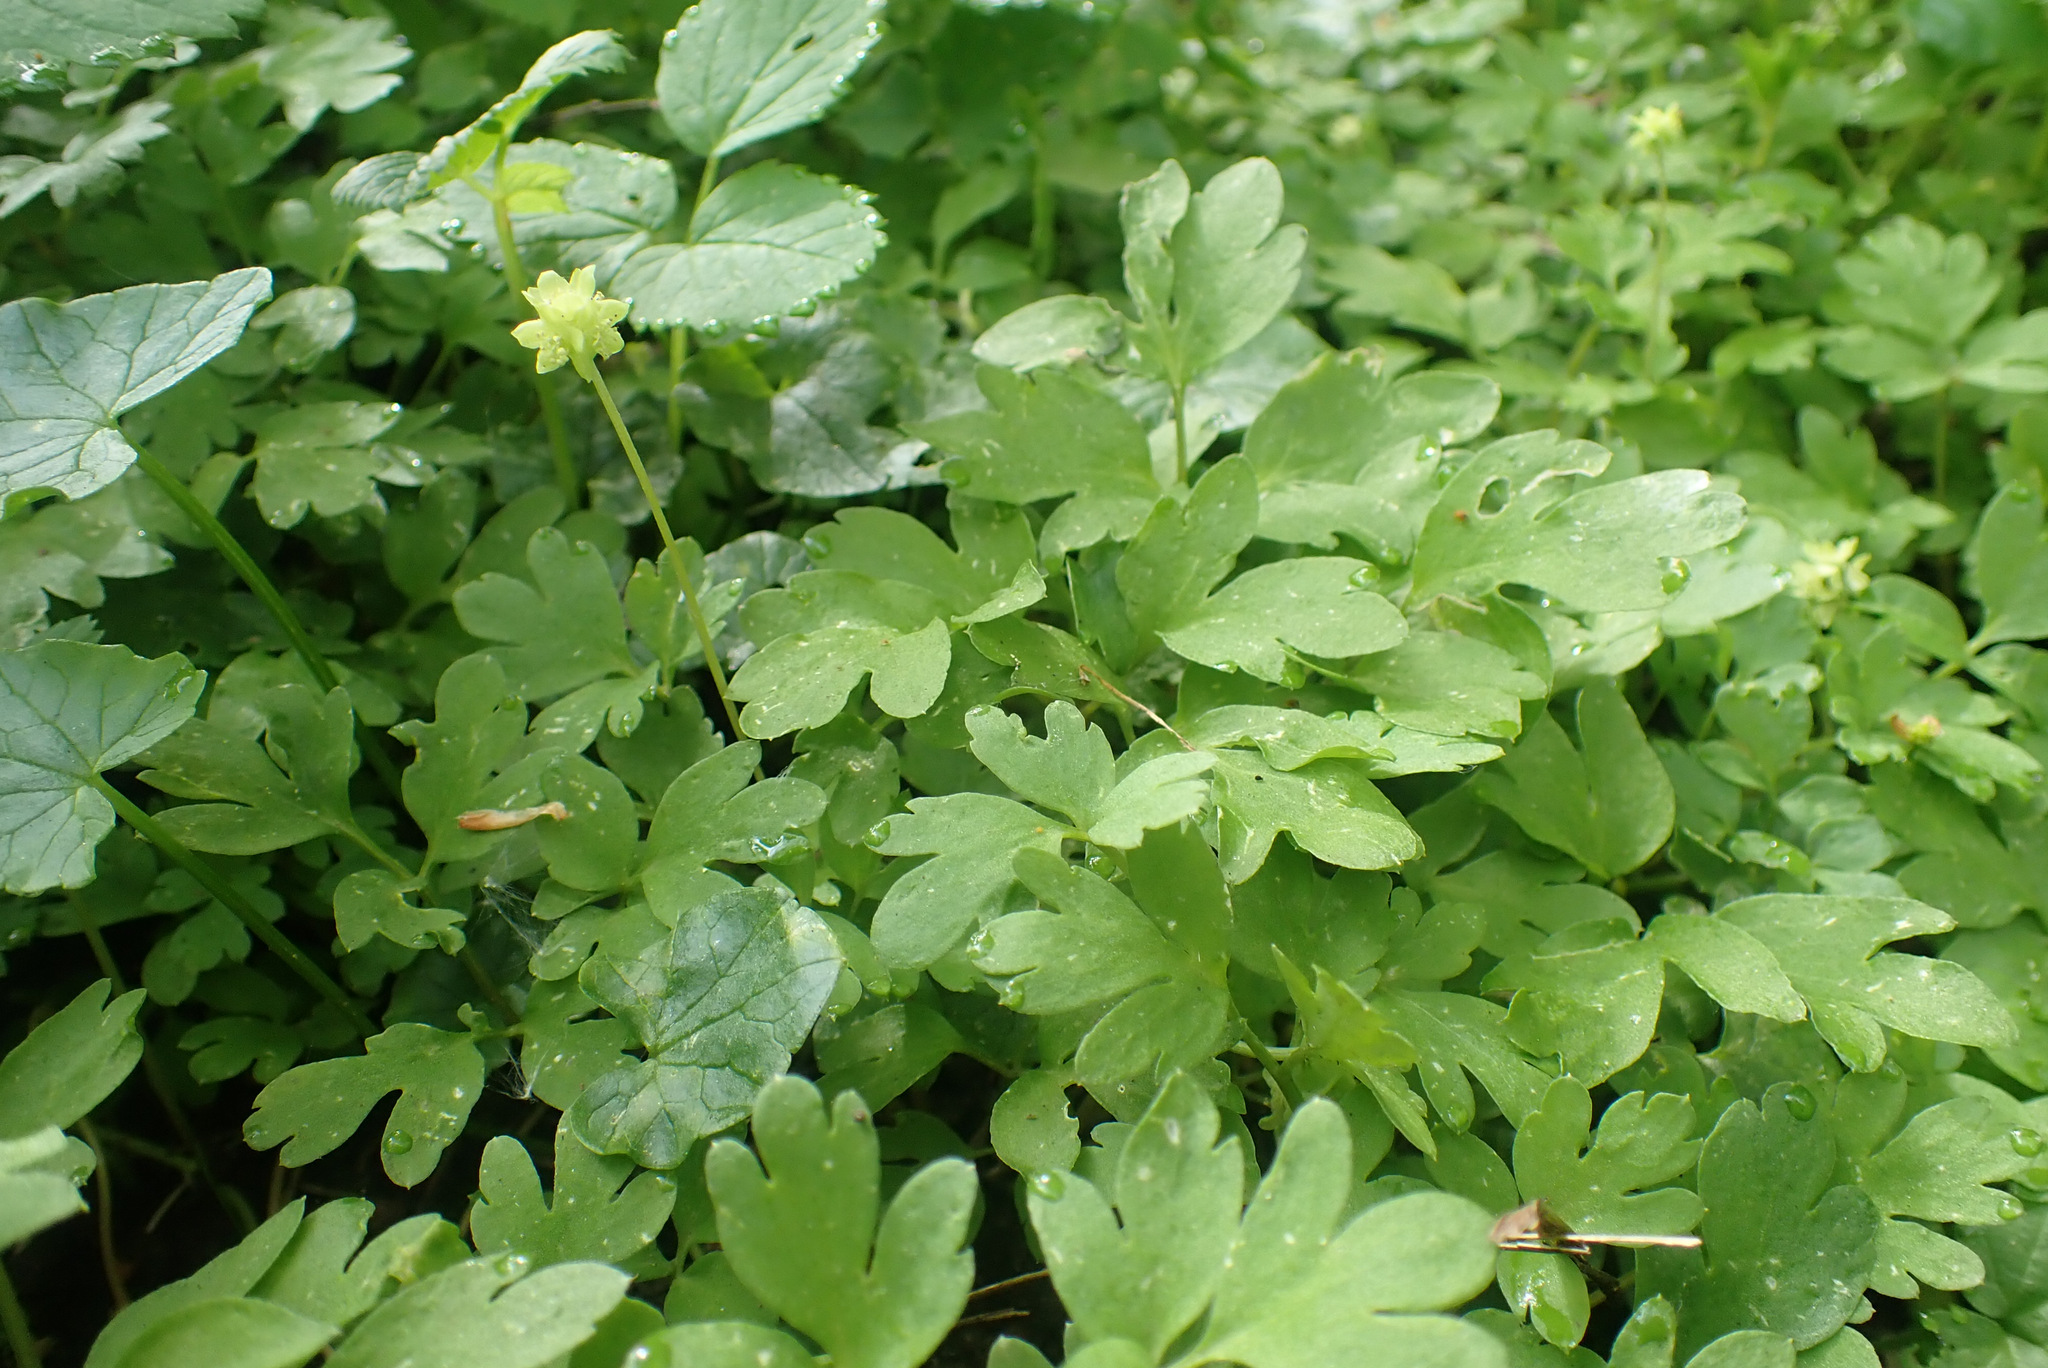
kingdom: Plantae
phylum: Tracheophyta
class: Magnoliopsida
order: Dipsacales
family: Viburnaceae
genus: Adoxa
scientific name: Adoxa moschatellina
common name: Moschatel
